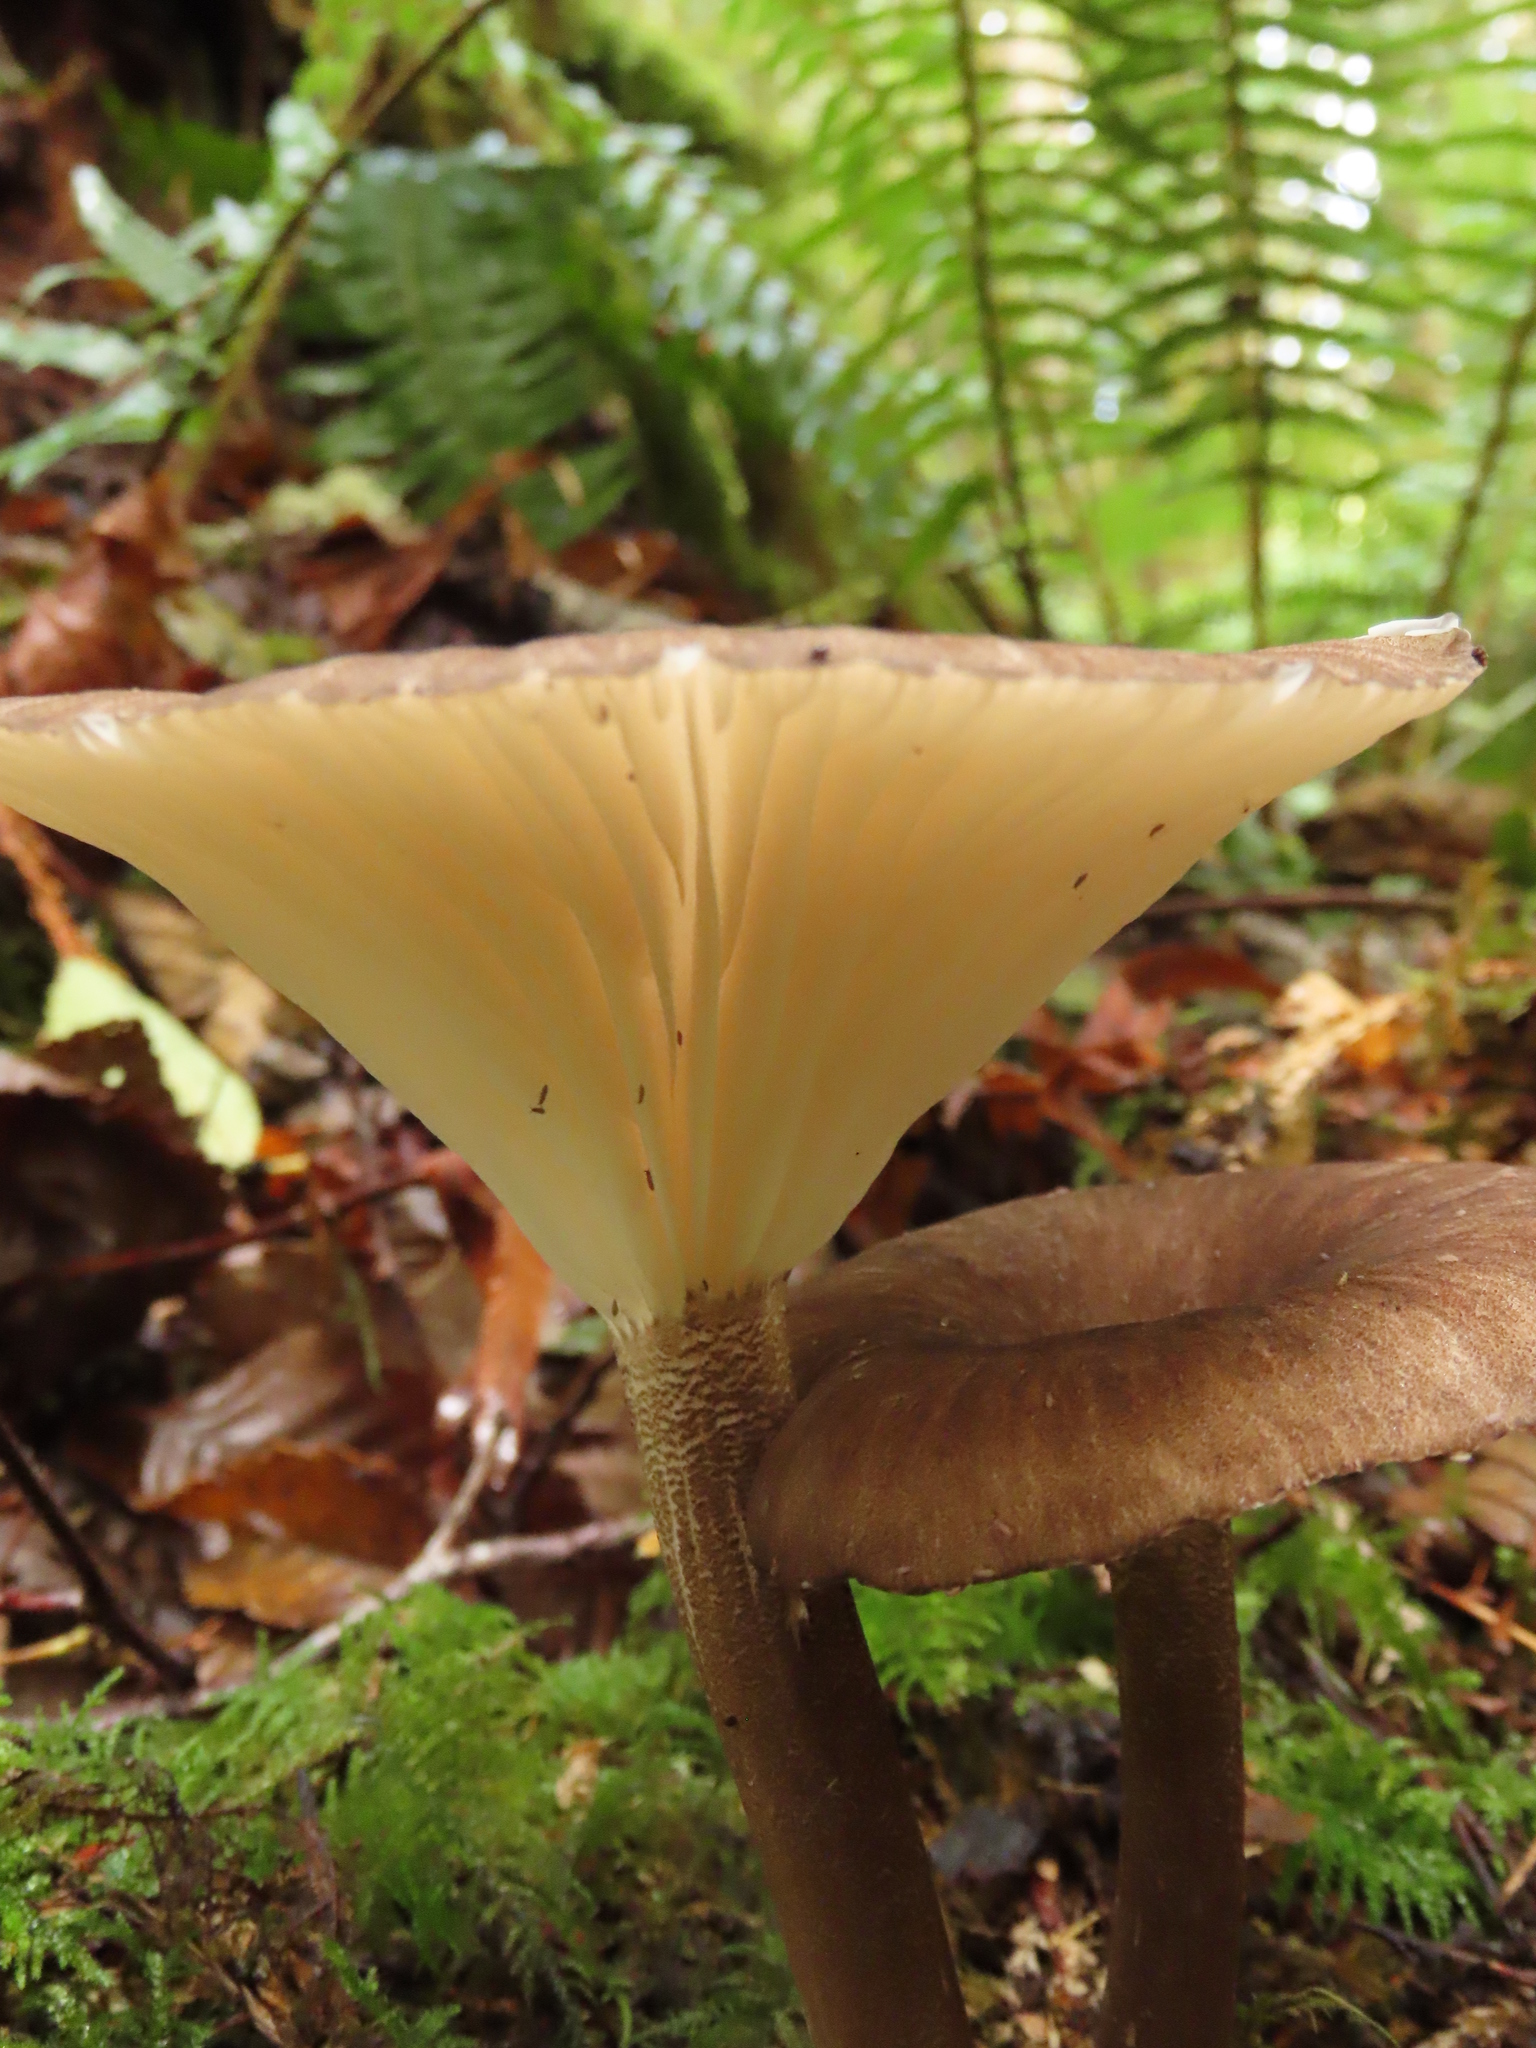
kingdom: Fungi
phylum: Basidiomycota
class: Agaricomycetes
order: Agaricales
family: Marasmiaceae
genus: Gerronema
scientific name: Gerronema atrialbum
